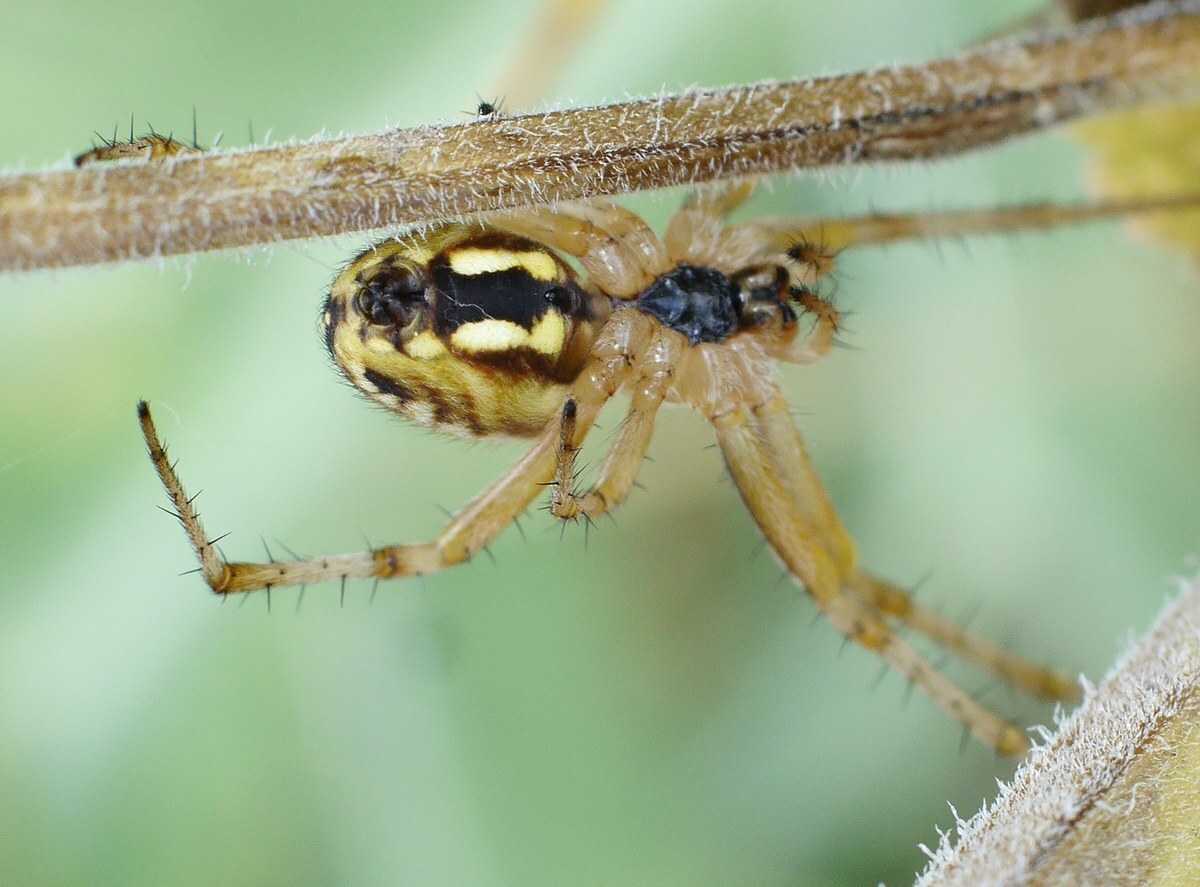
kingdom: Animalia
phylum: Arthropoda
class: Arachnida
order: Araneae
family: Araneidae
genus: Neoscona
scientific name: Neoscona adianta
